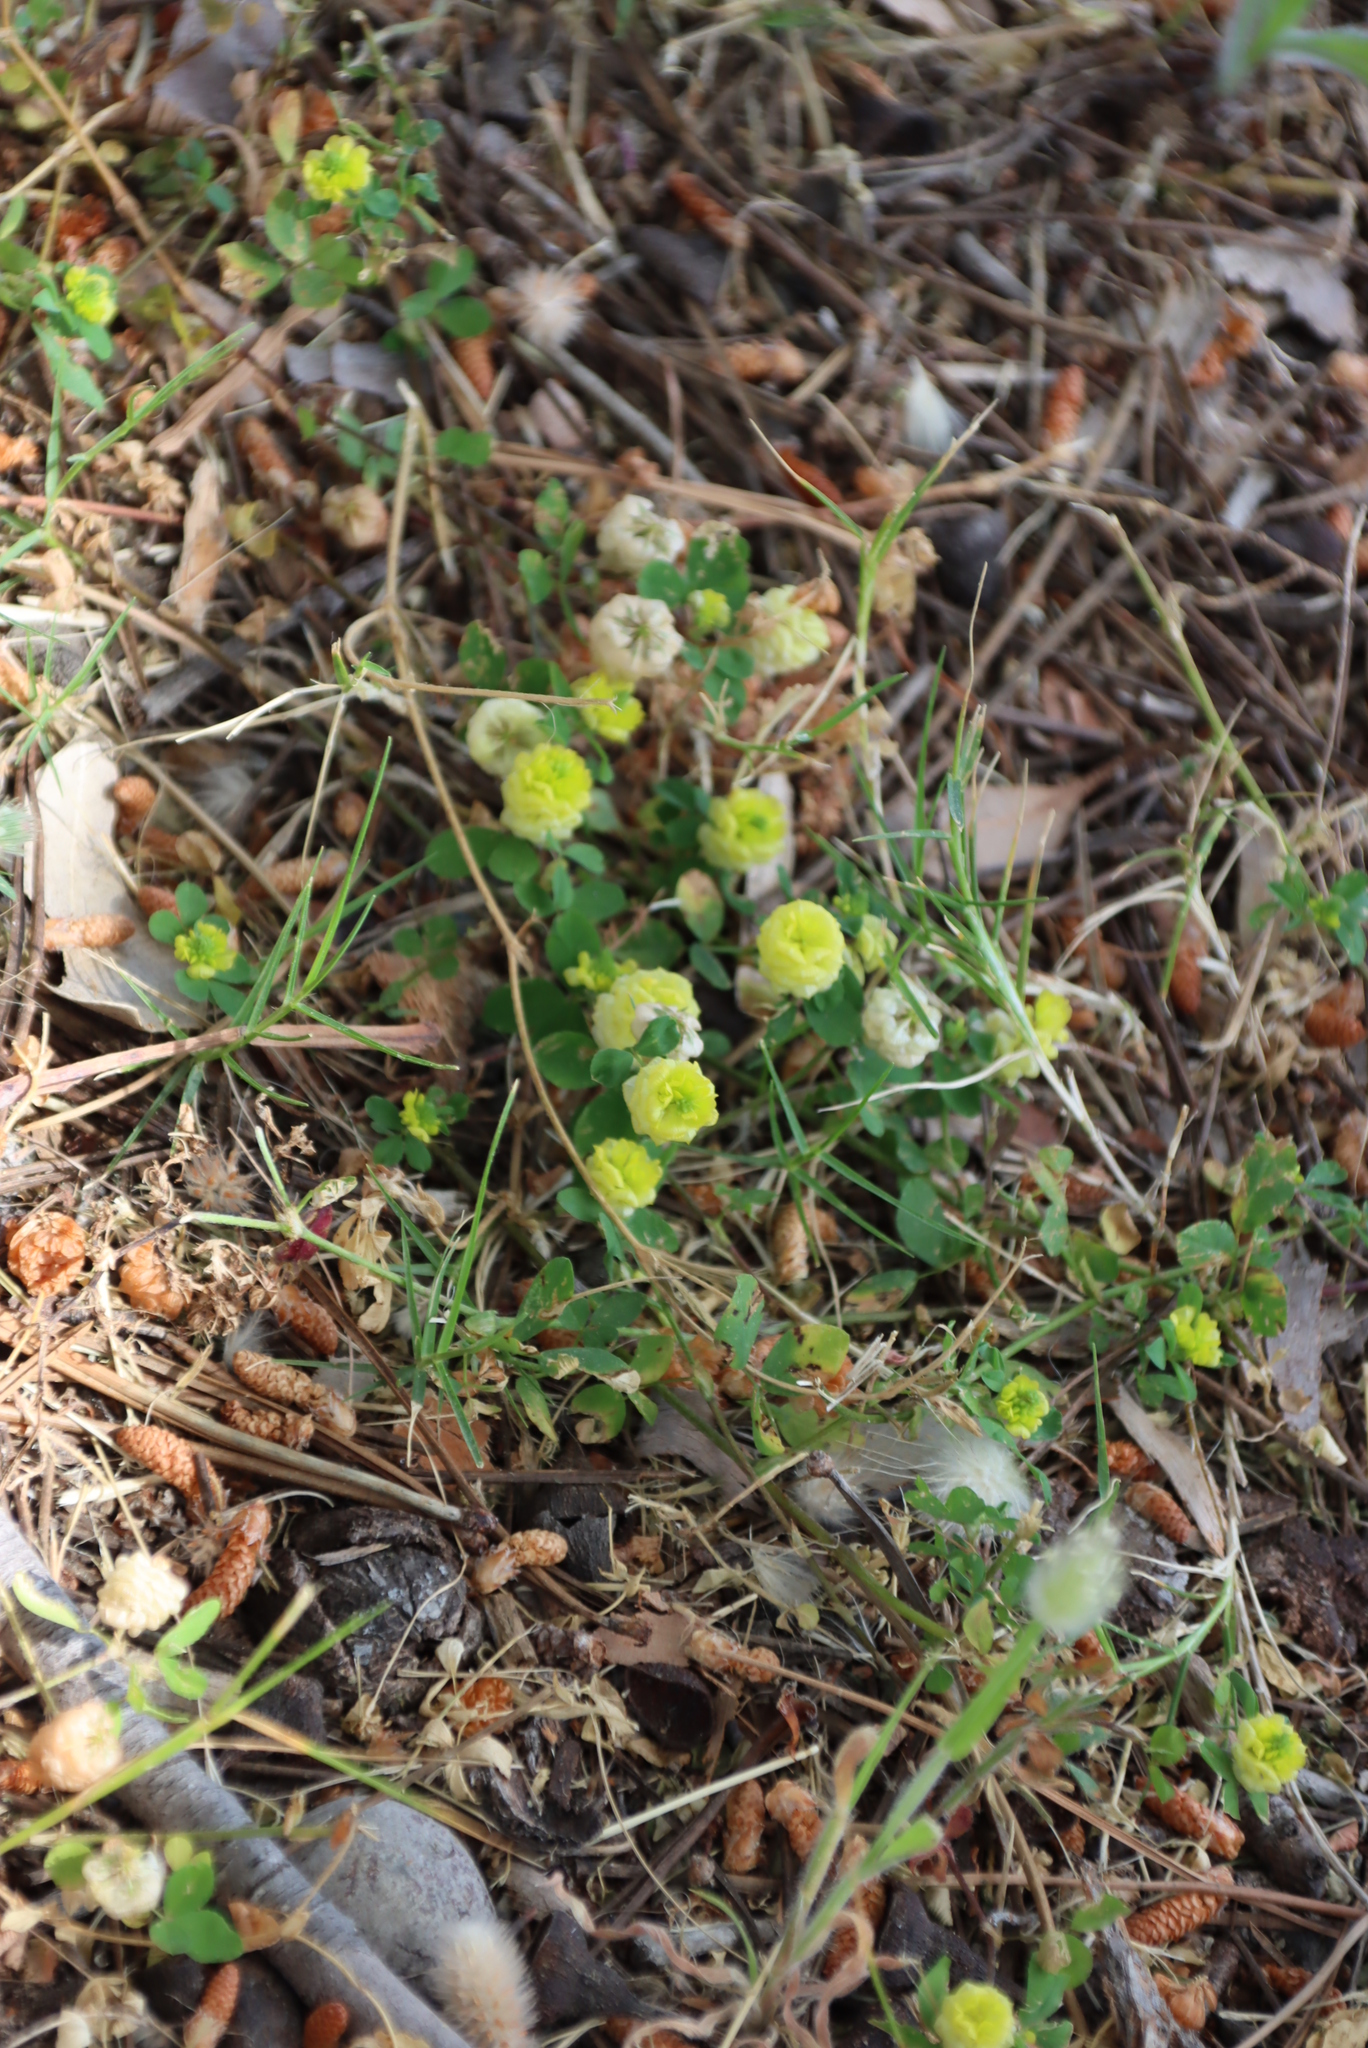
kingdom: Plantae
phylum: Tracheophyta
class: Magnoliopsida
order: Fabales
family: Fabaceae
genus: Trifolium
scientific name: Trifolium campestre
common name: Field clover
